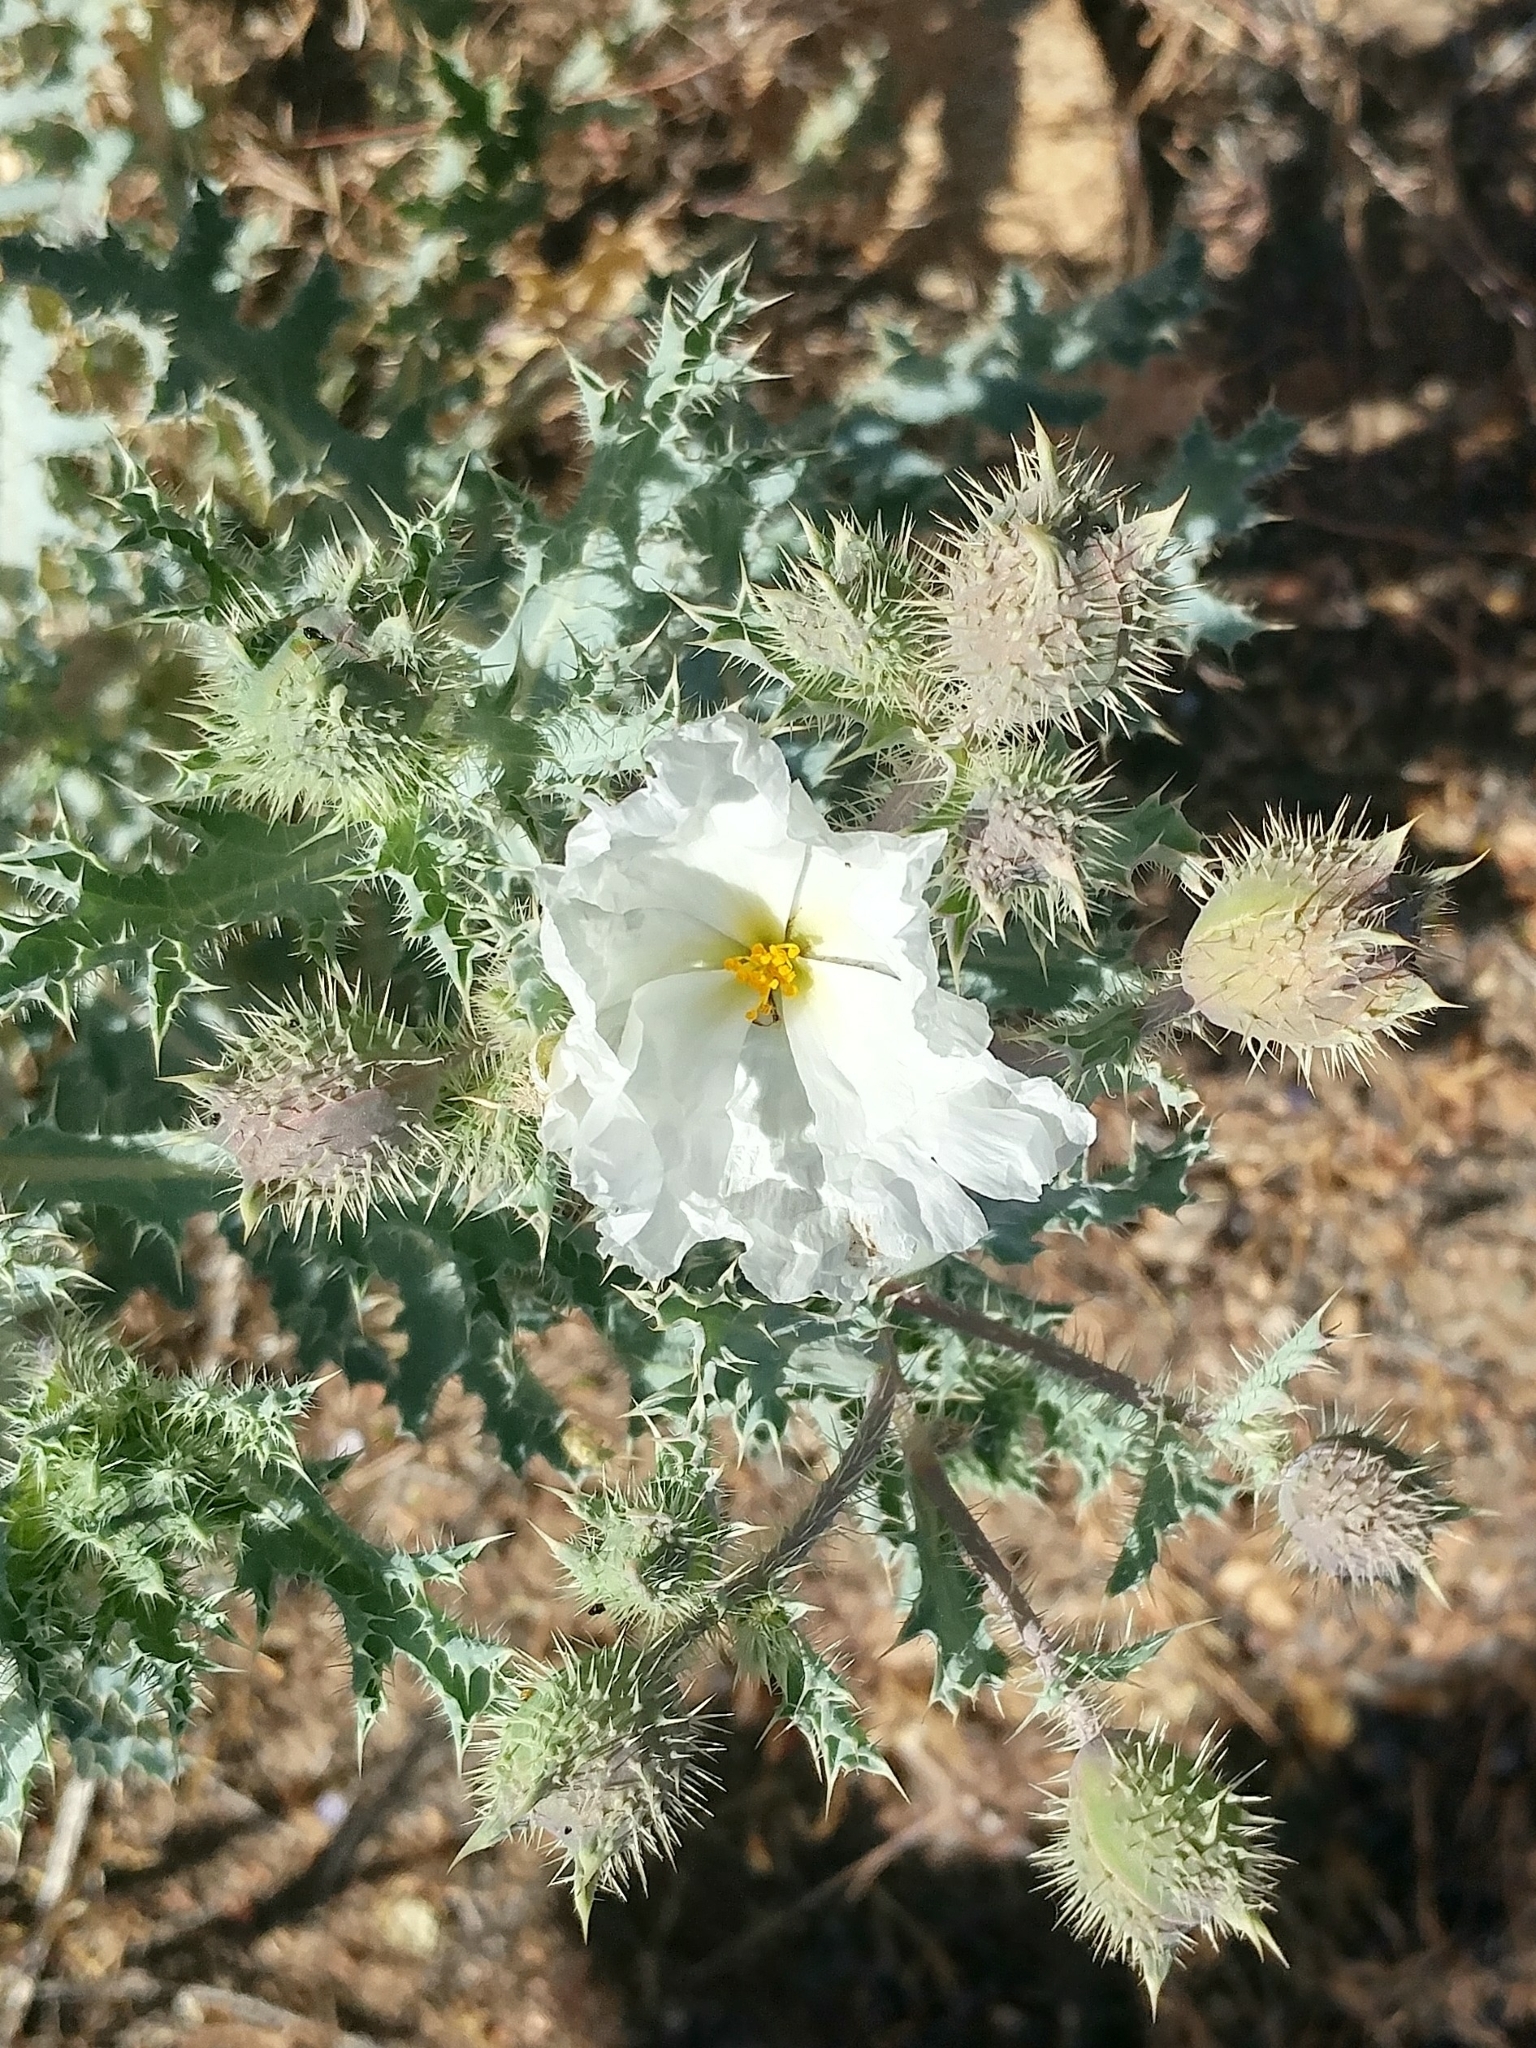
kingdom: Plantae
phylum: Tracheophyta
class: Magnoliopsida
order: Ranunculales
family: Papaveraceae
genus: Argemone
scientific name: Argemone munita
